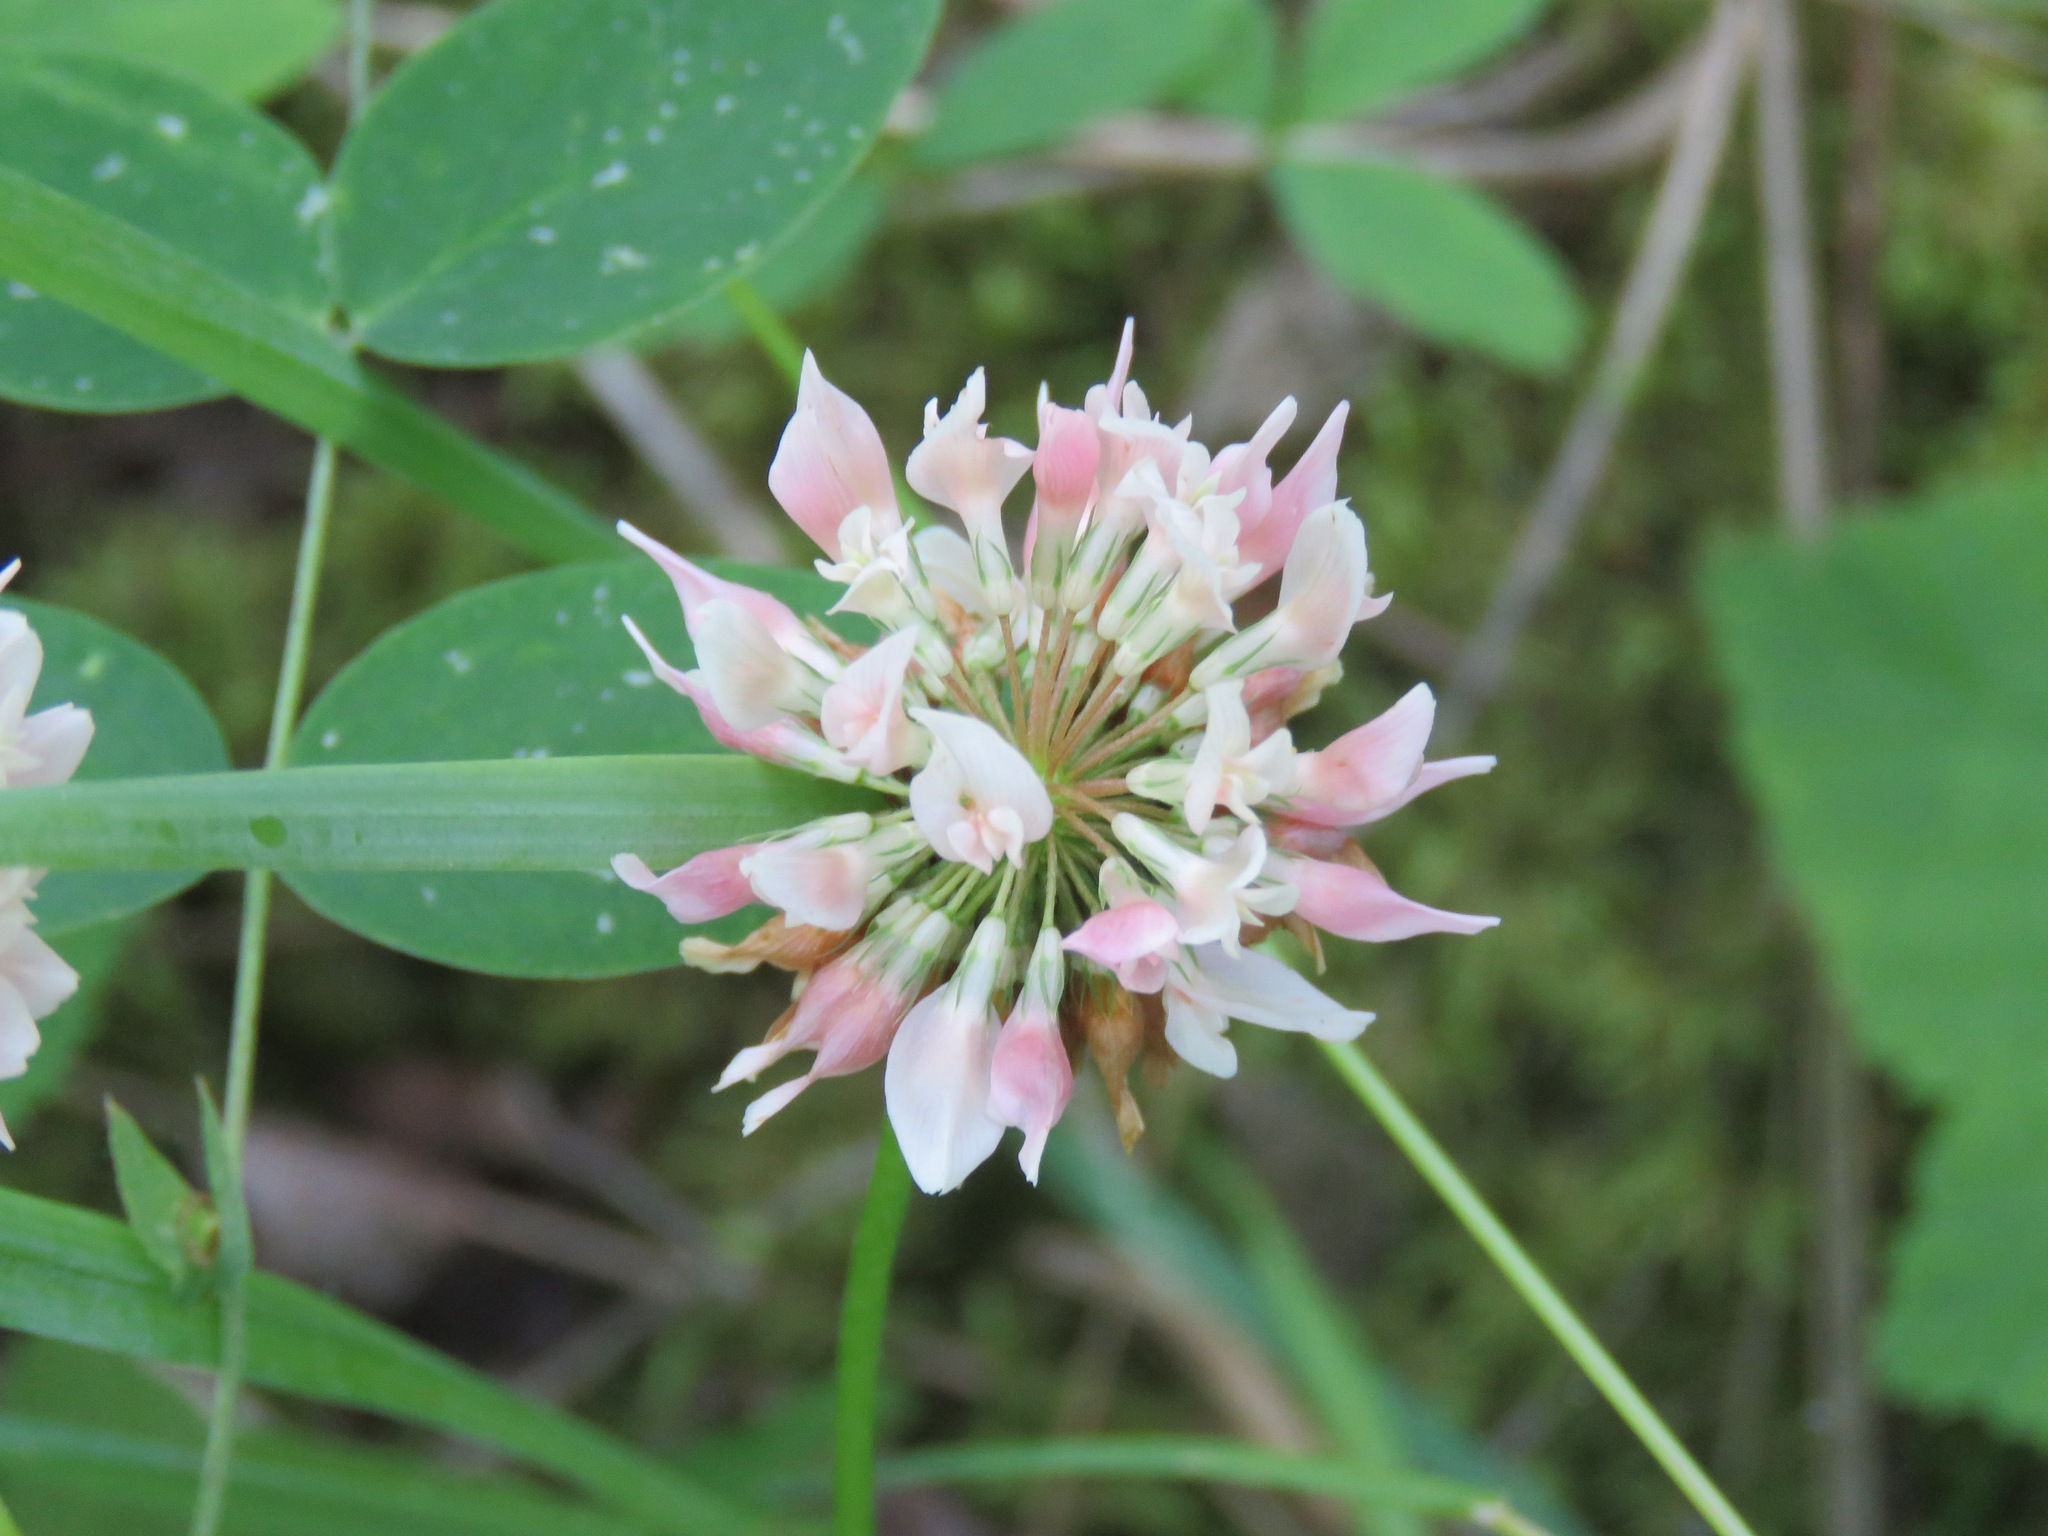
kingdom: Plantae
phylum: Tracheophyta
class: Magnoliopsida
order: Fabales
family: Fabaceae
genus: Trifolium
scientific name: Trifolium hybridum
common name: Alsike clover
